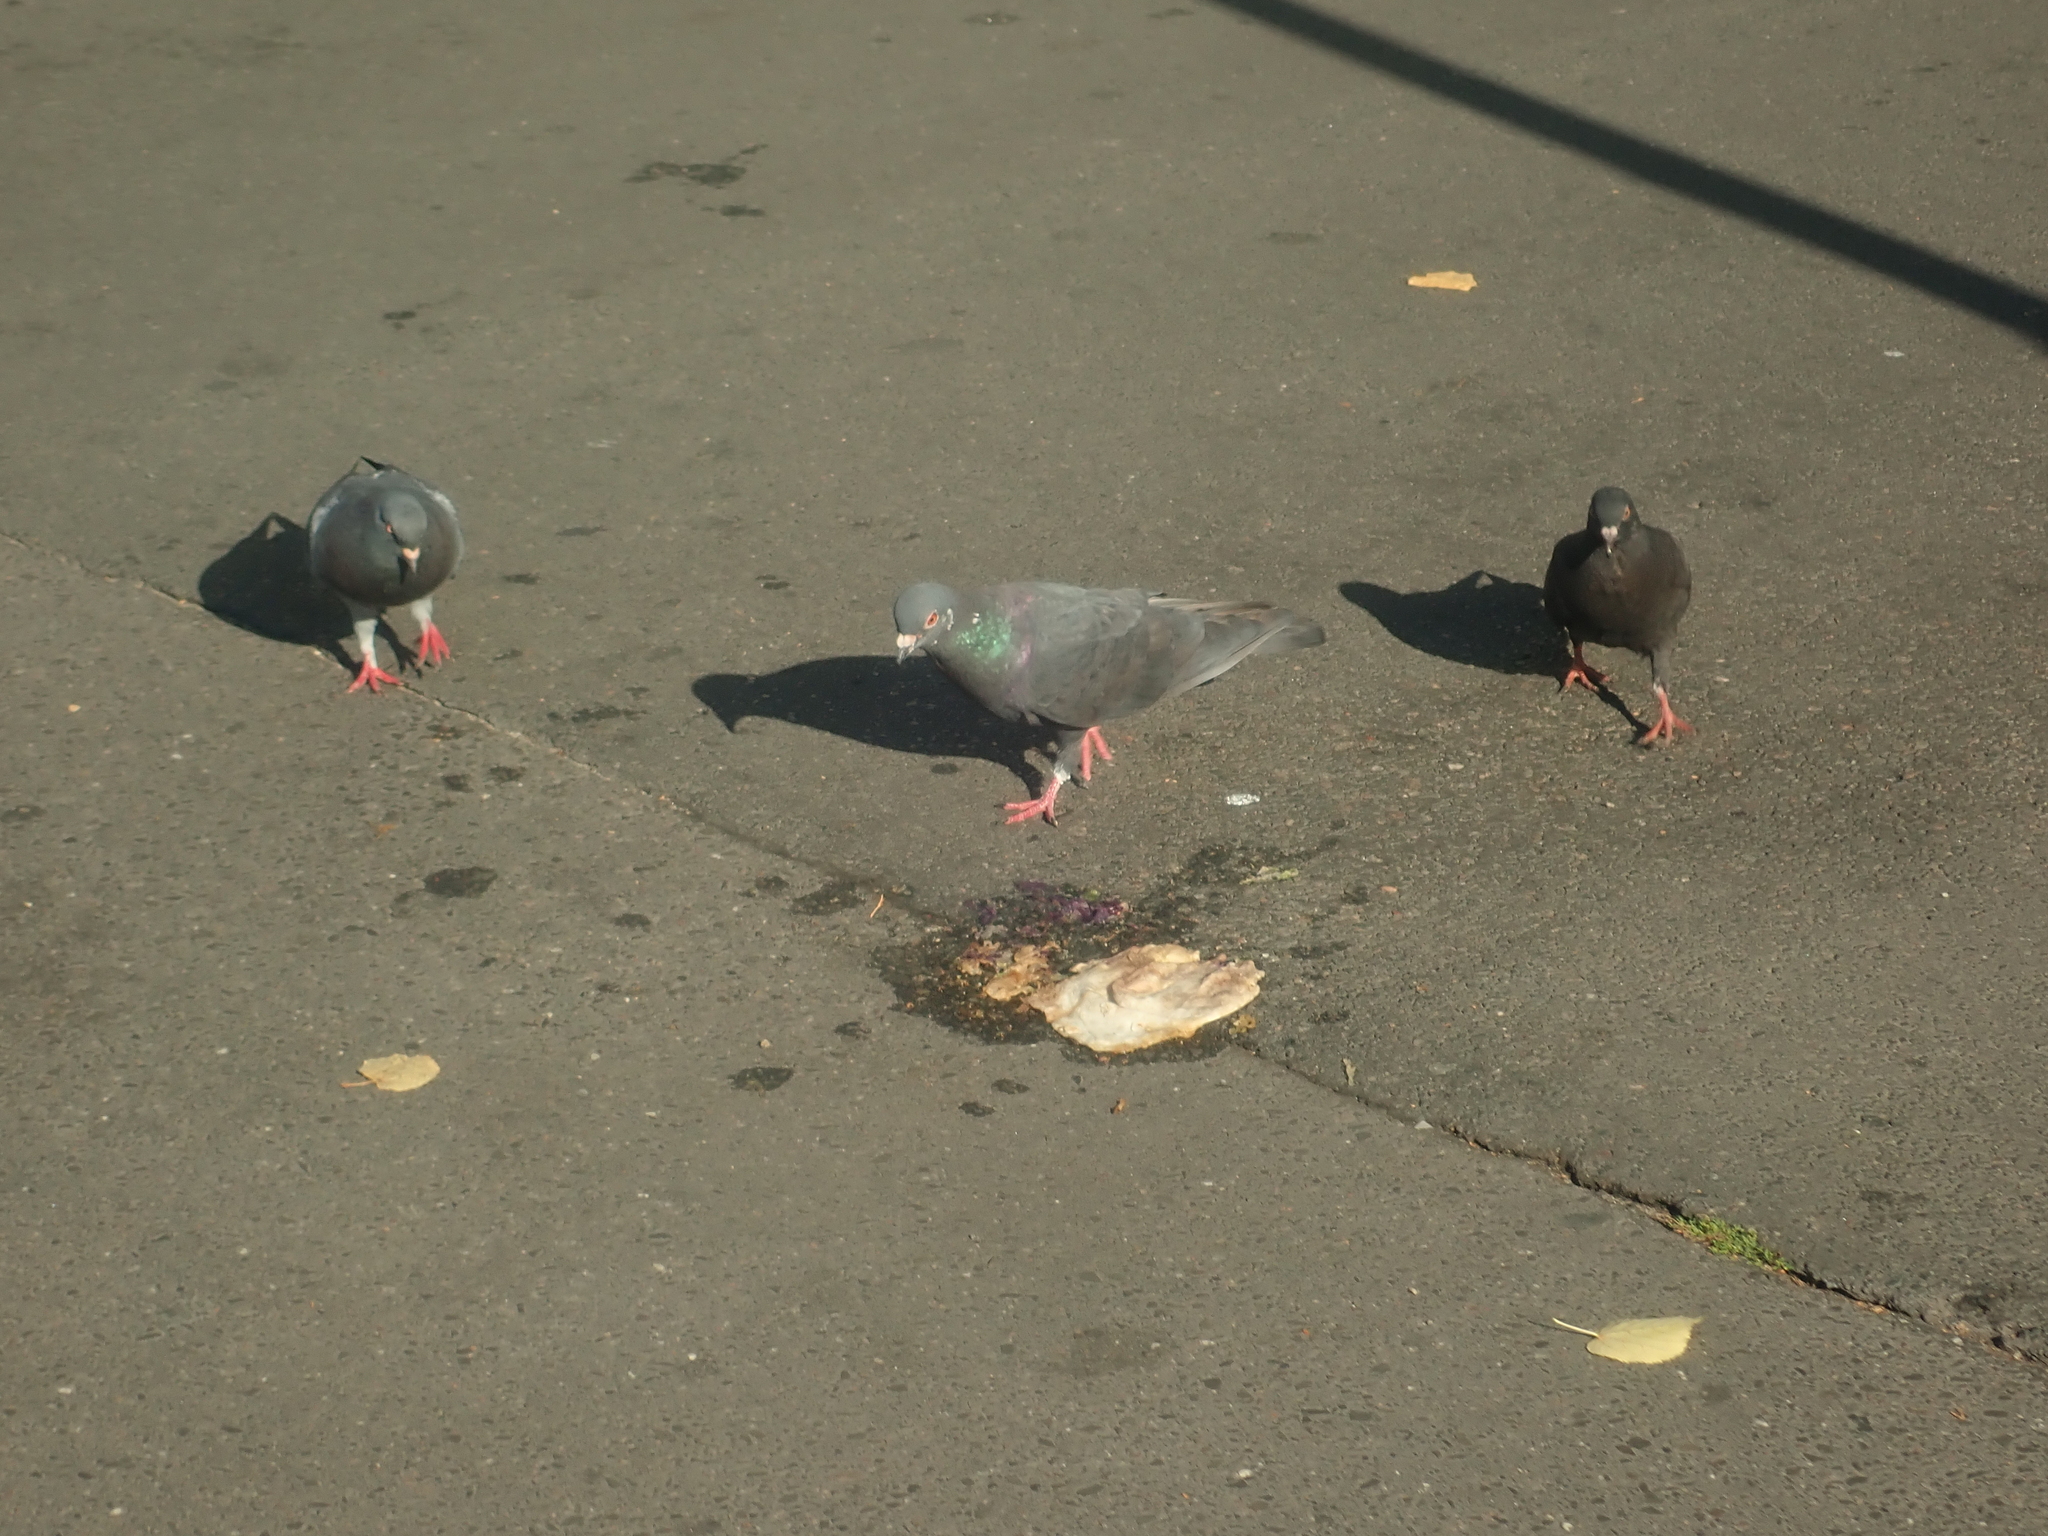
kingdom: Animalia
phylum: Chordata
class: Aves
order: Columbiformes
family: Columbidae
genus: Columba
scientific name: Columba livia
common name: Rock pigeon
